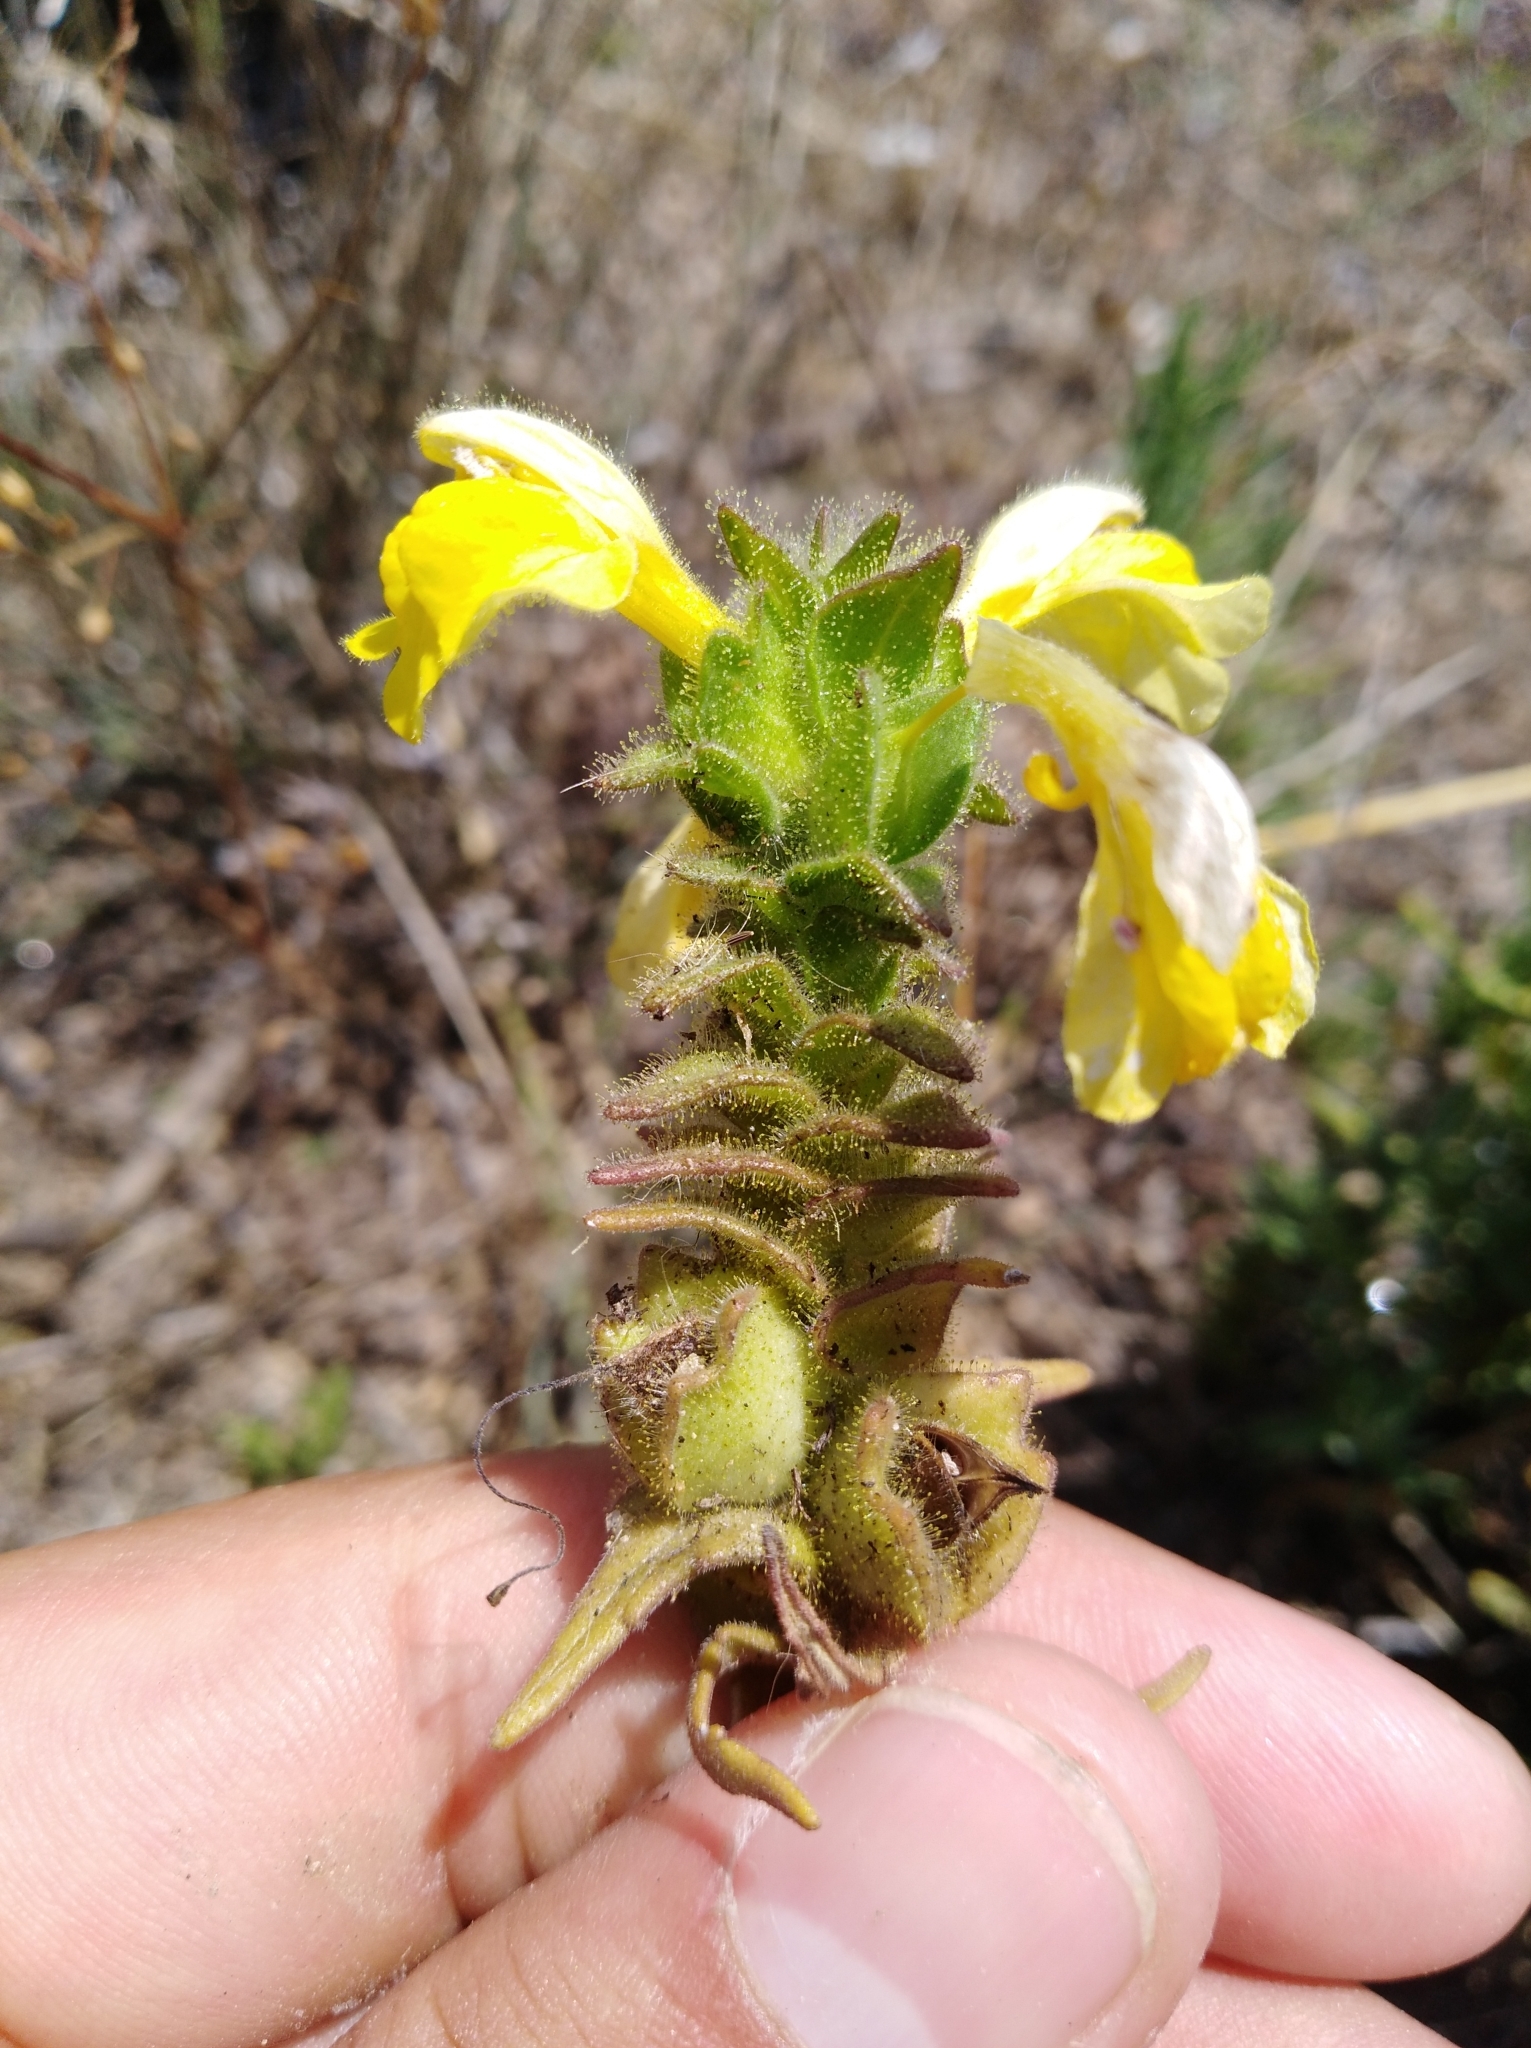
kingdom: Plantae
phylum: Tracheophyta
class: Magnoliopsida
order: Lamiales
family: Orobanchaceae
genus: Bellardia
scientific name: Bellardia trixago
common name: Mediterranean lineseed
